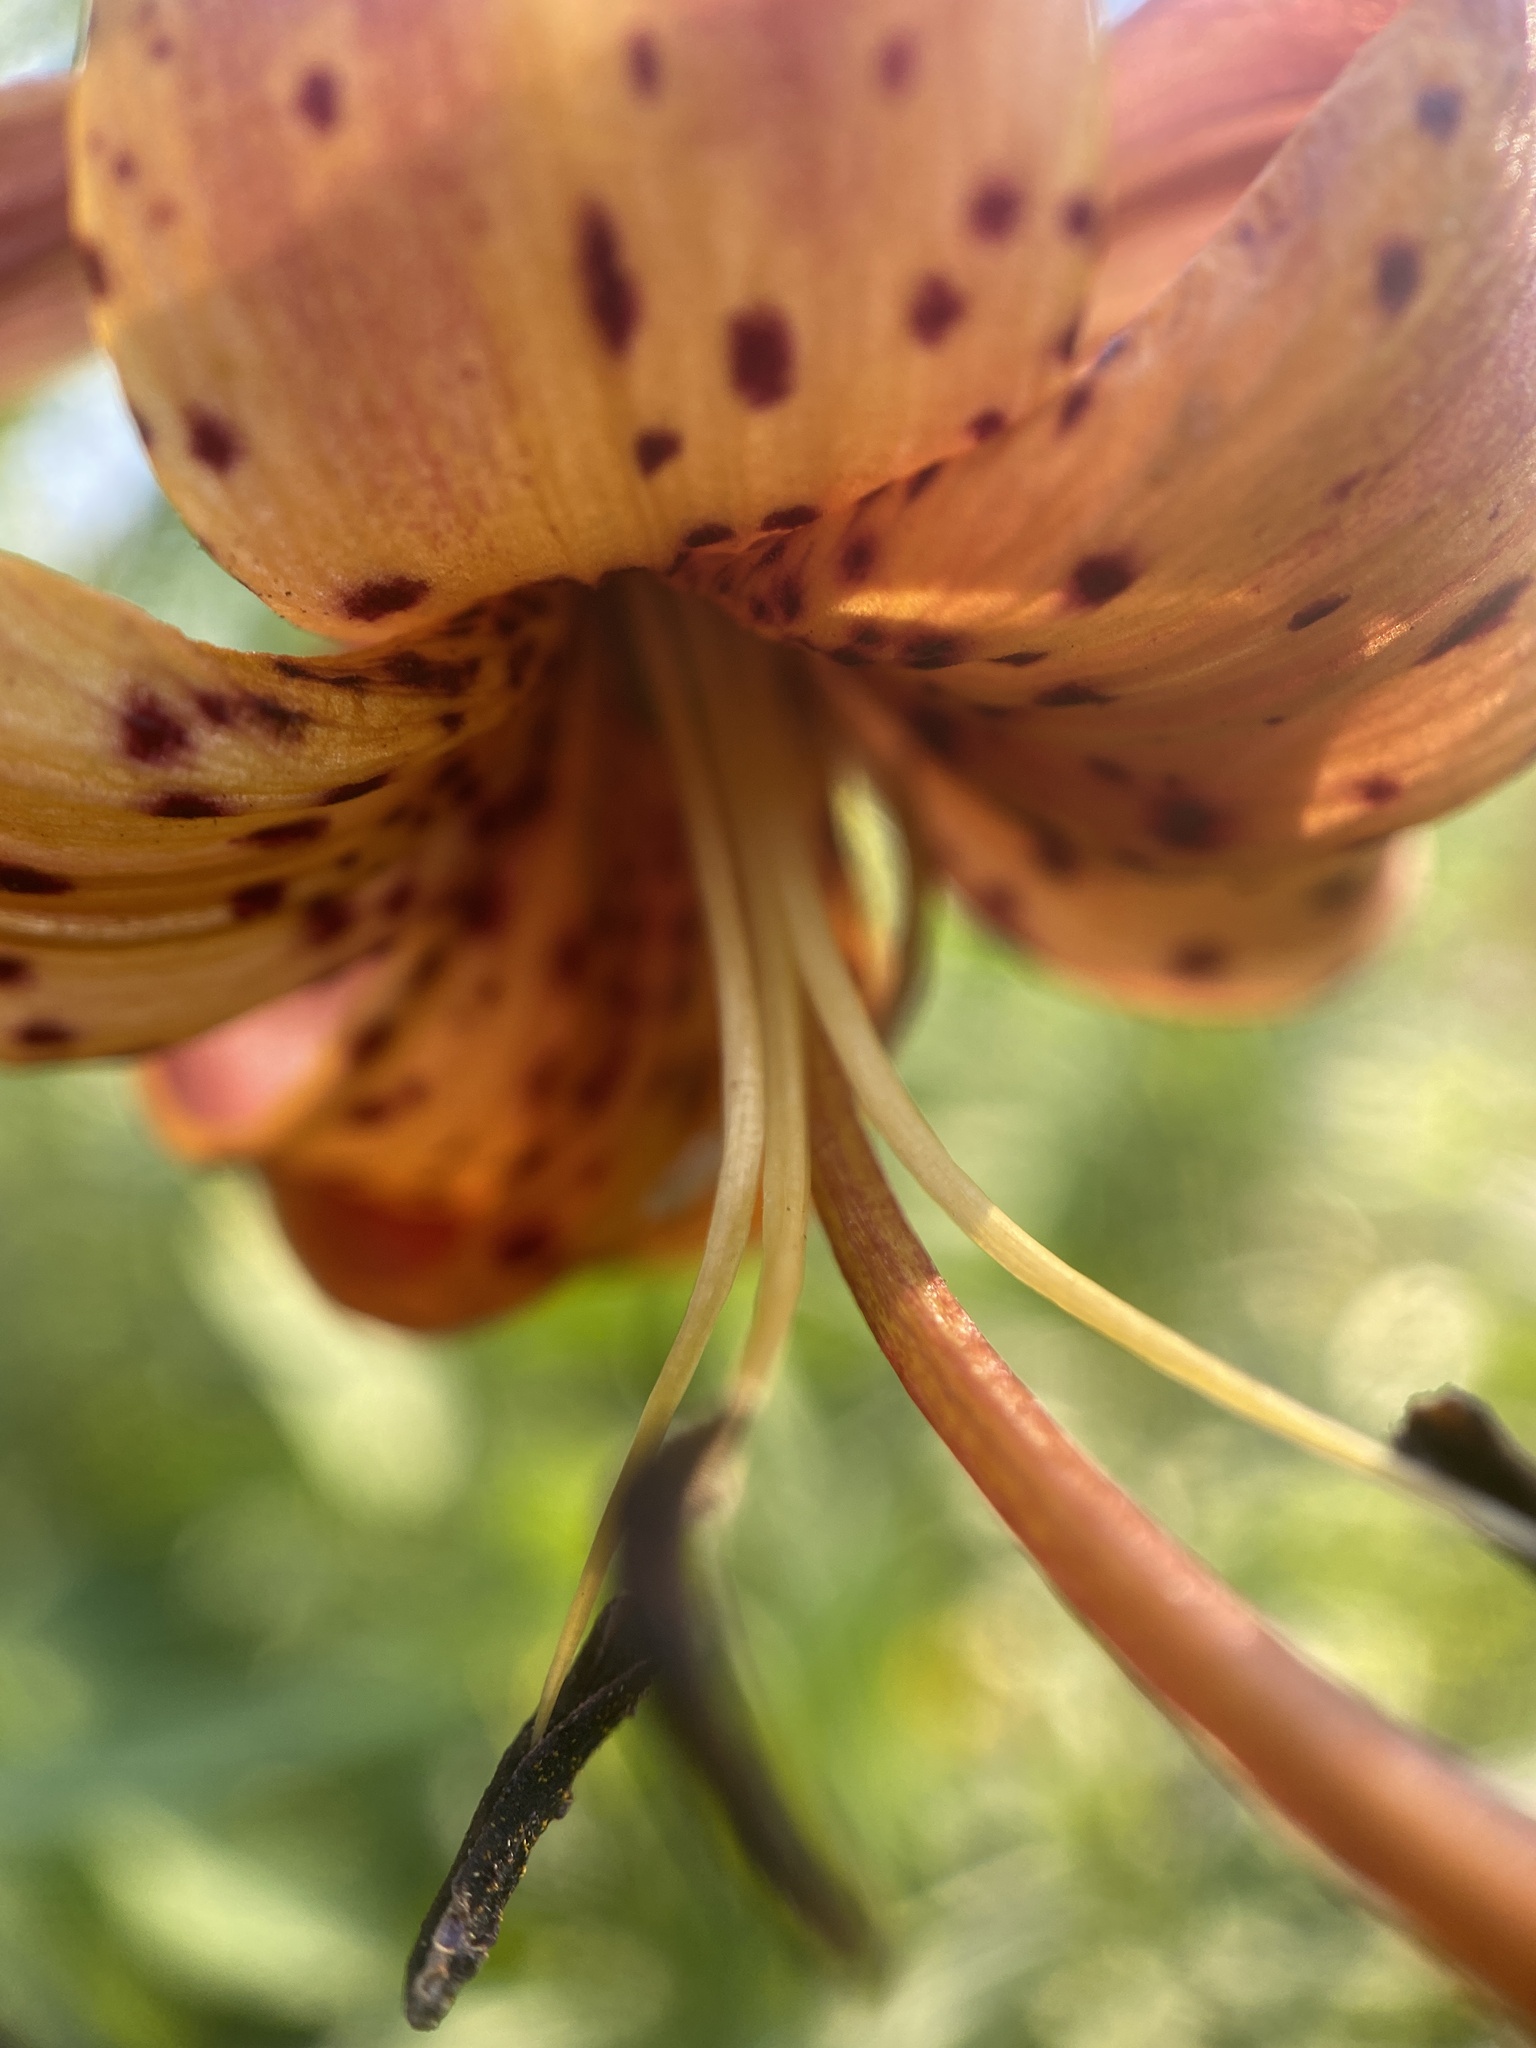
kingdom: Plantae
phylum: Tracheophyta
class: Liliopsida
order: Liliales
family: Liliaceae
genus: Lilium
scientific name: Lilium michiganense
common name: Michigan lily
